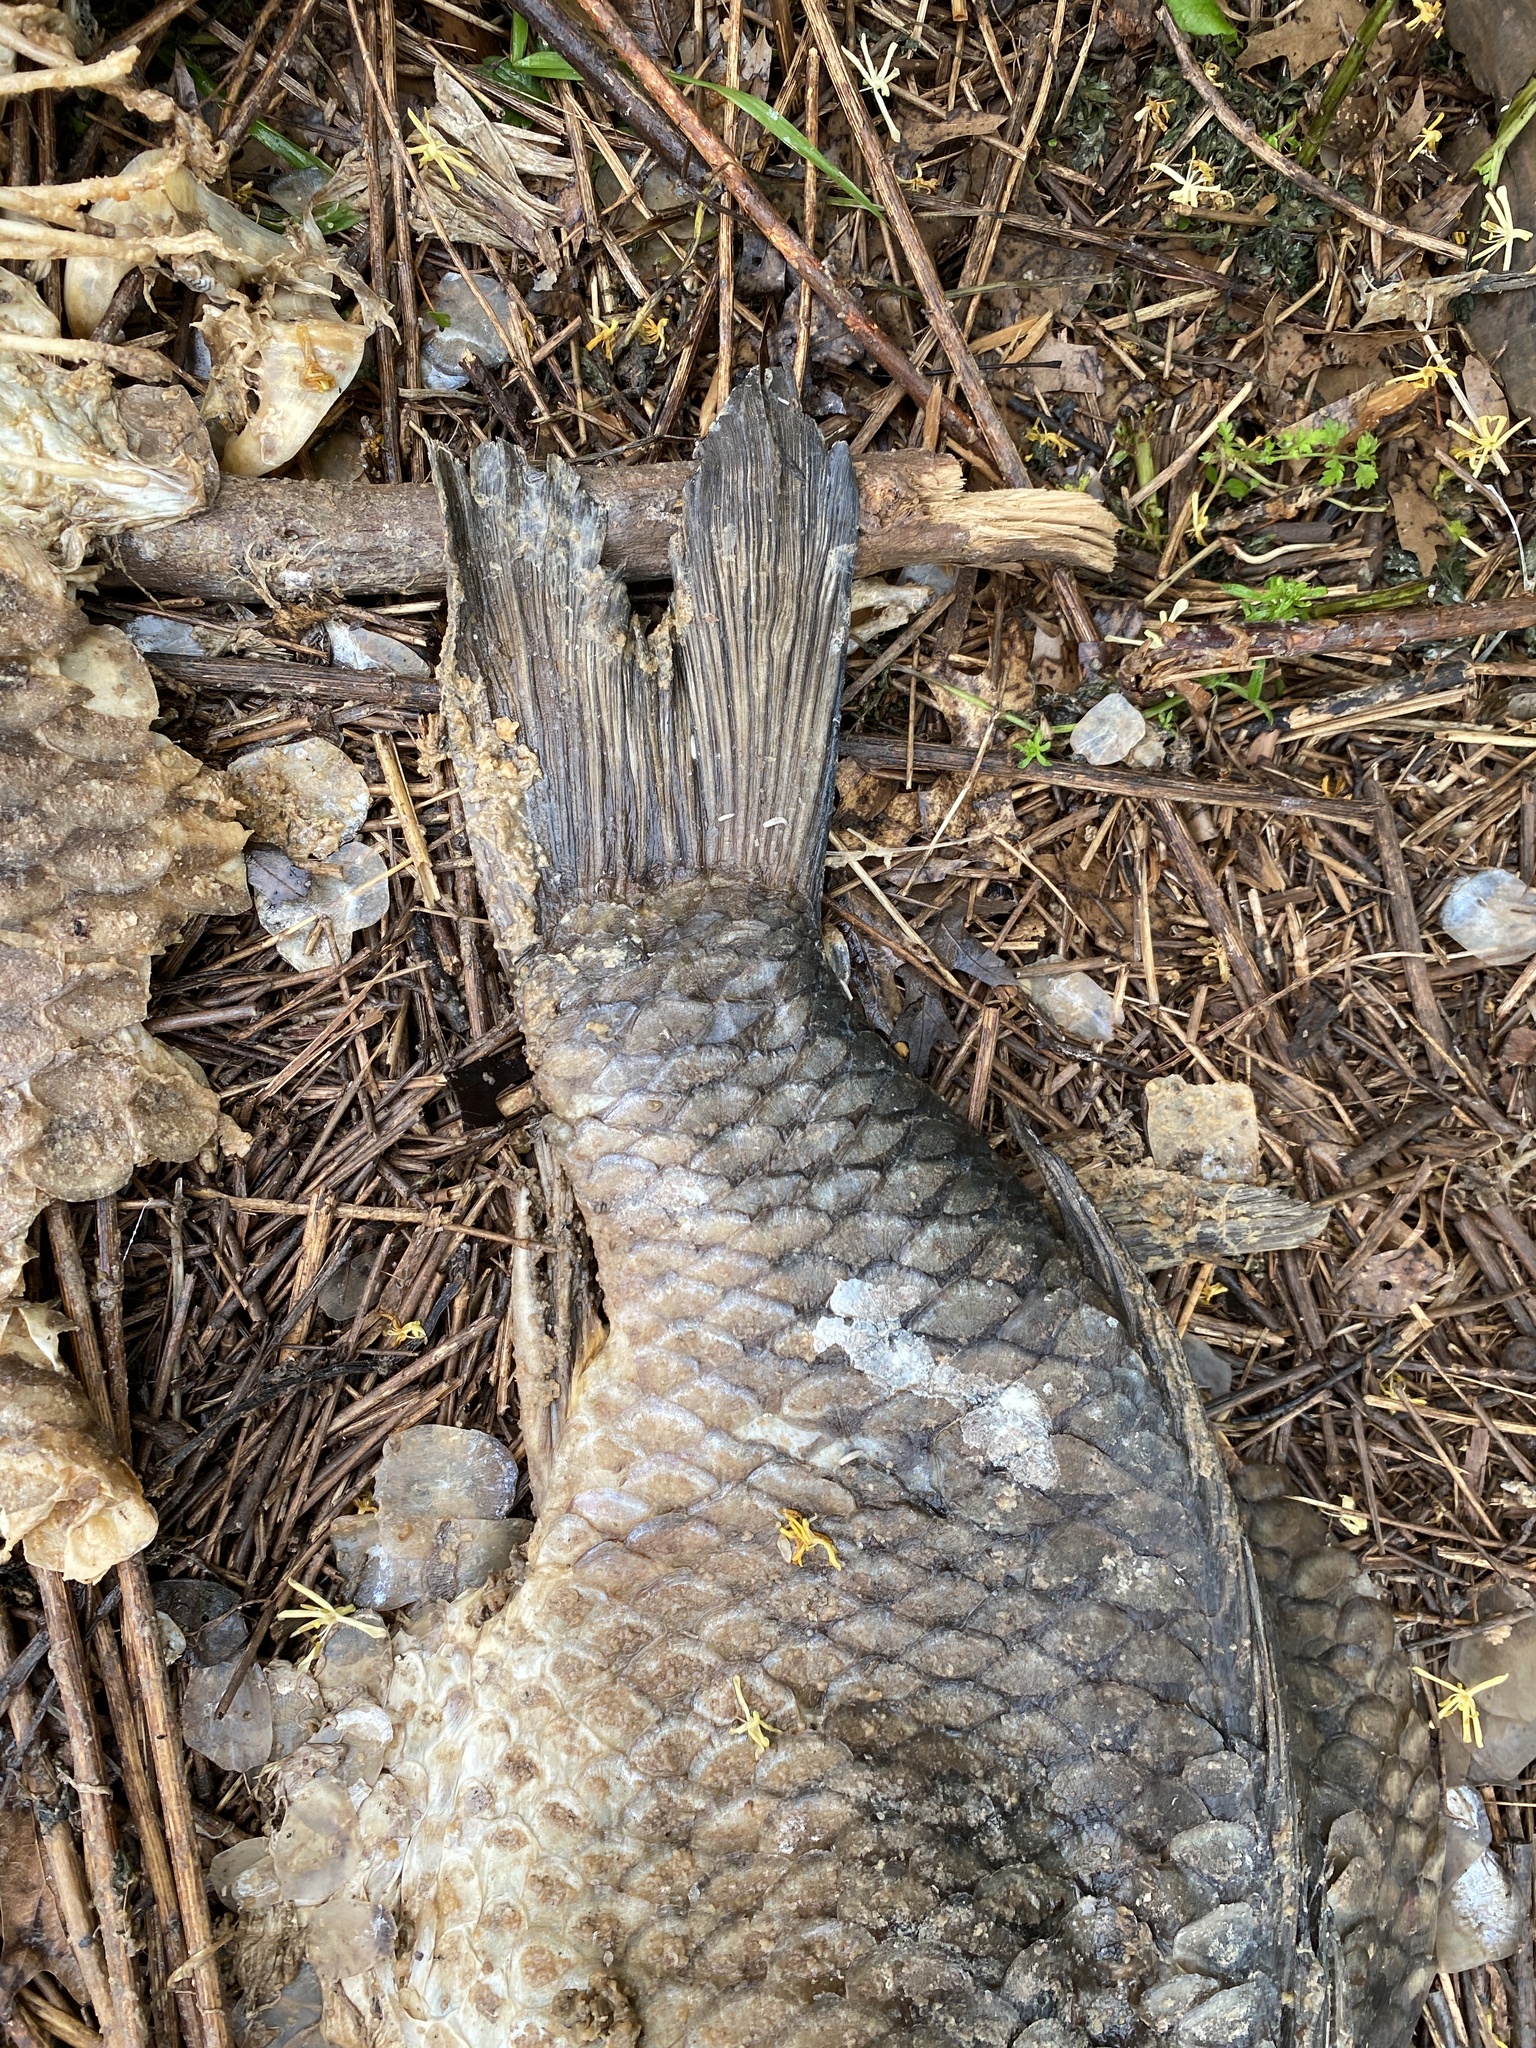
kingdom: Animalia
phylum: Chordata
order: Cypriniformes
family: Cyprinidae
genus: Cyprinus
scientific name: Cyprinus carpio
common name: Common carp
